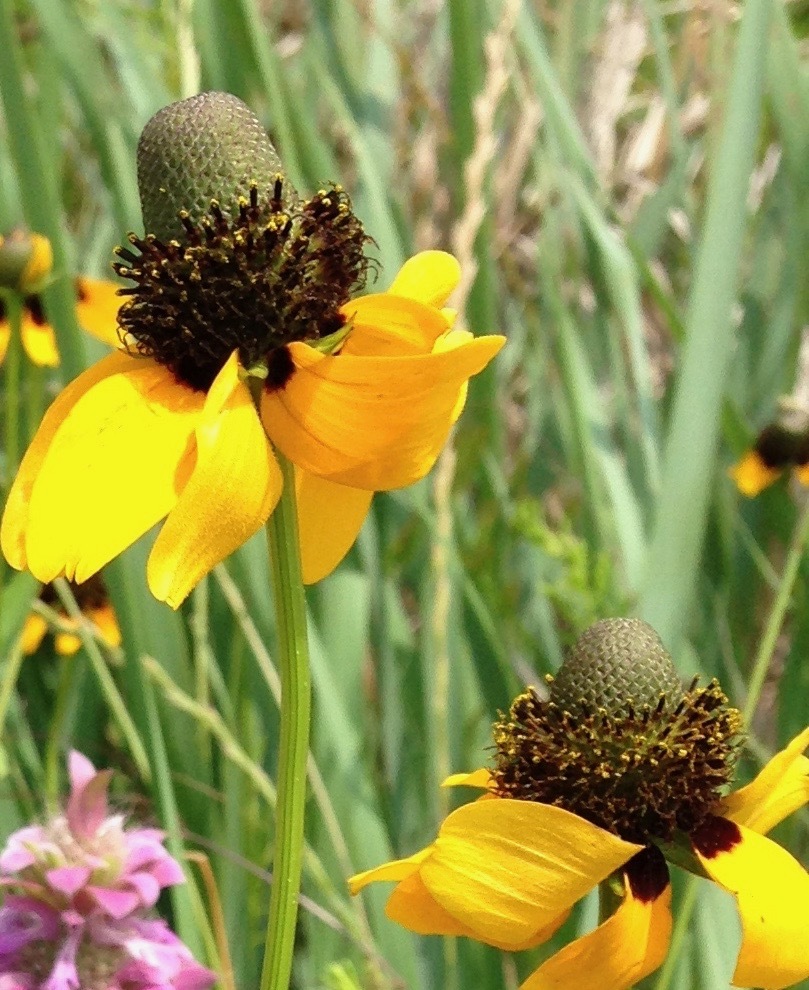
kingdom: Plantae
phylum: Tracheophyta
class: Magnoliopsida
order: Asterales
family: Asteraceae
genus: Rudbeckia
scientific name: Rudbeckia amplexicaulis
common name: Clasping-leaf coneflower
